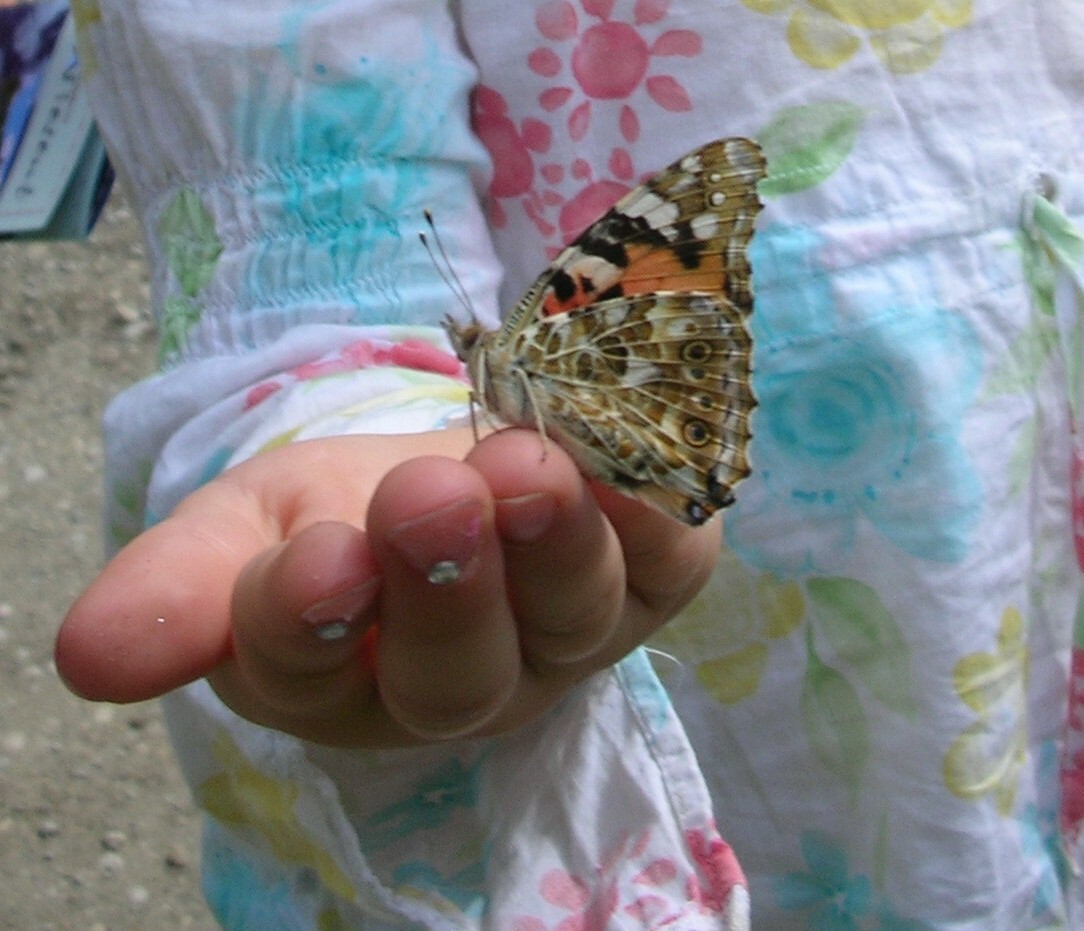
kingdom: Animalia
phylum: Arthropoda
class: Insecta
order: Lepidoptera
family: Nymphalidae
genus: Vanessa
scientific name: Vanessa cardui
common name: Painted lady
